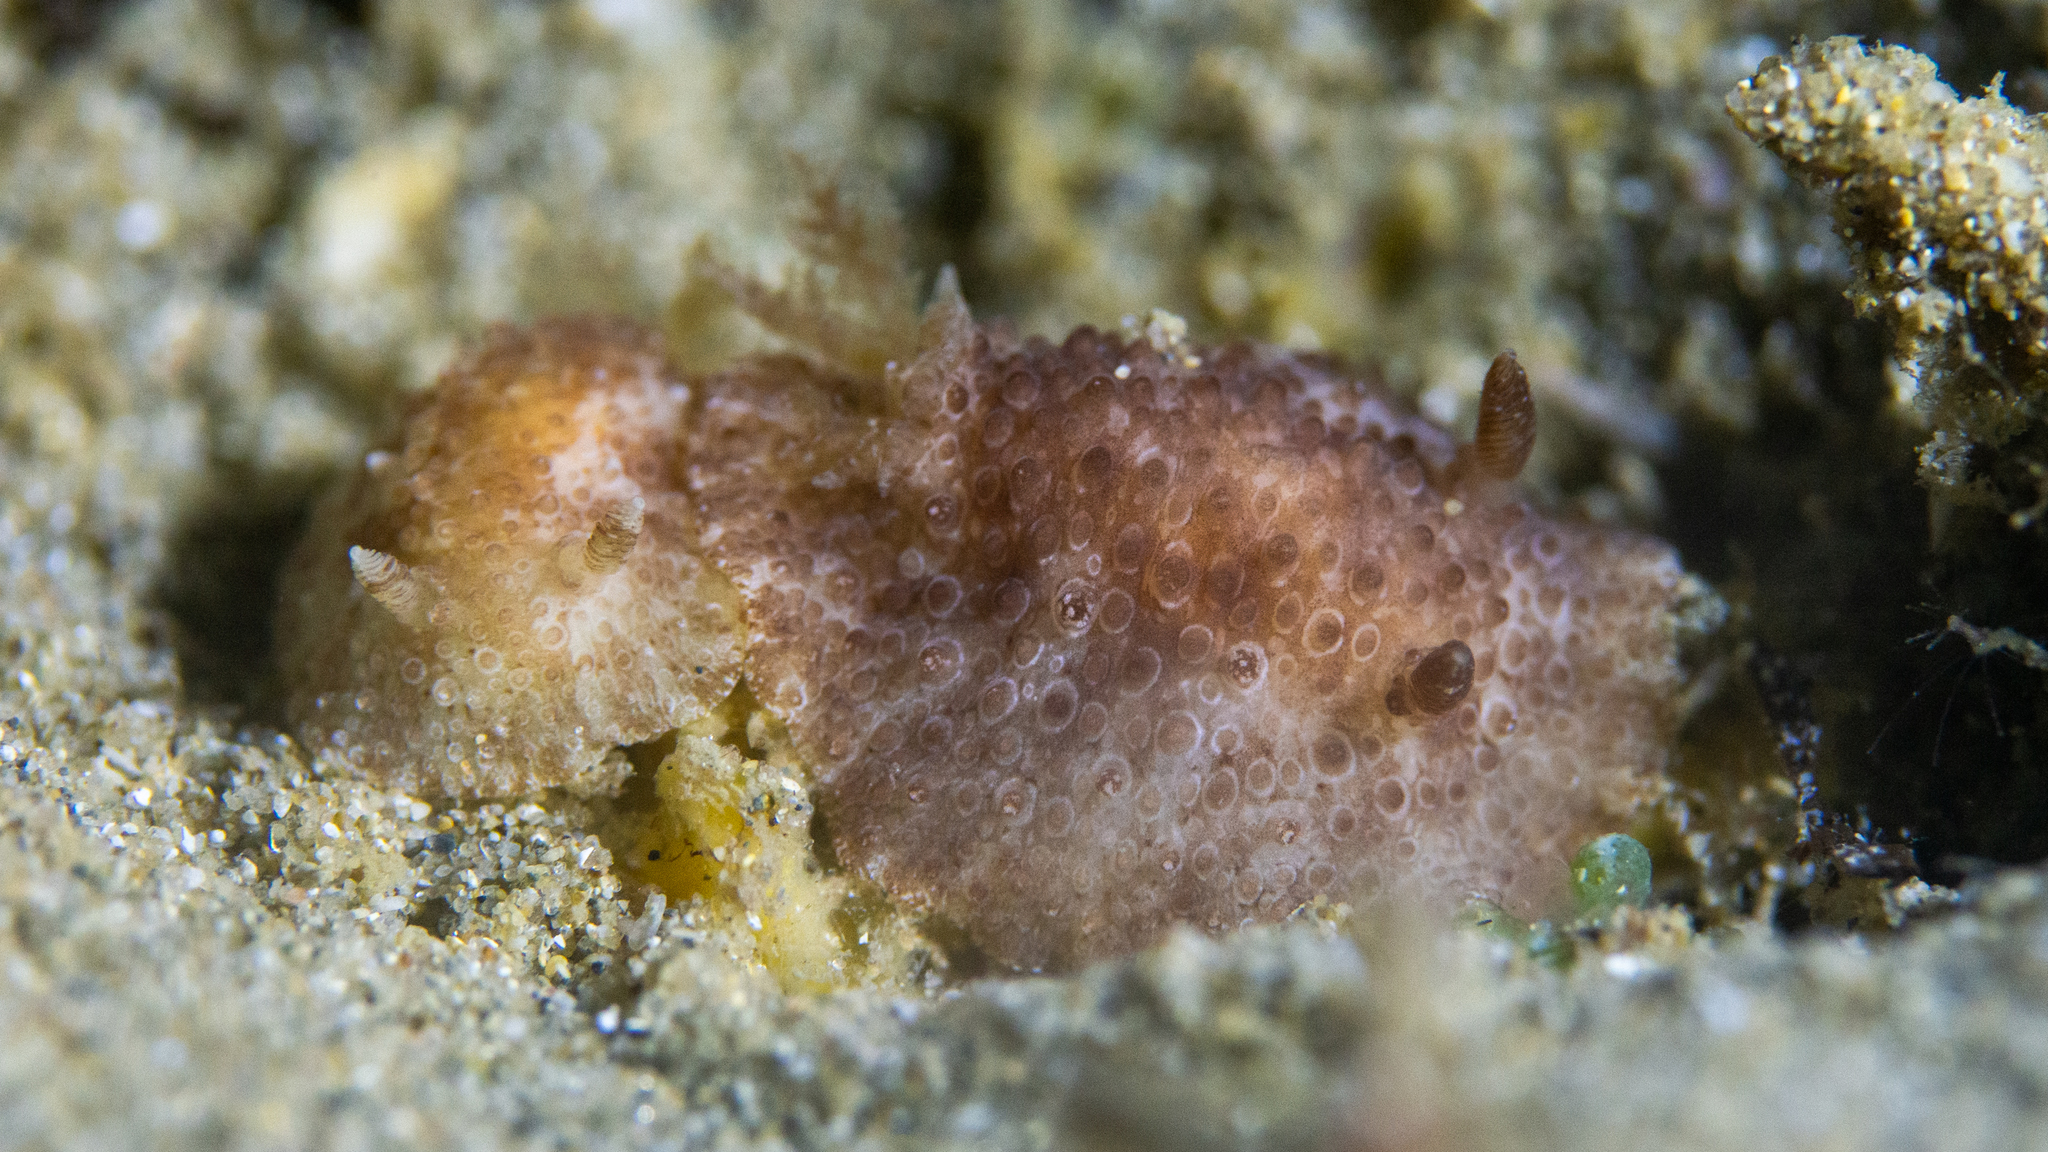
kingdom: Animalia
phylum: Mollusca
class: Gastropoda
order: Nudibranchia
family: Discodorididae
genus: Carminodoris
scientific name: Carminodoris nodulosa
